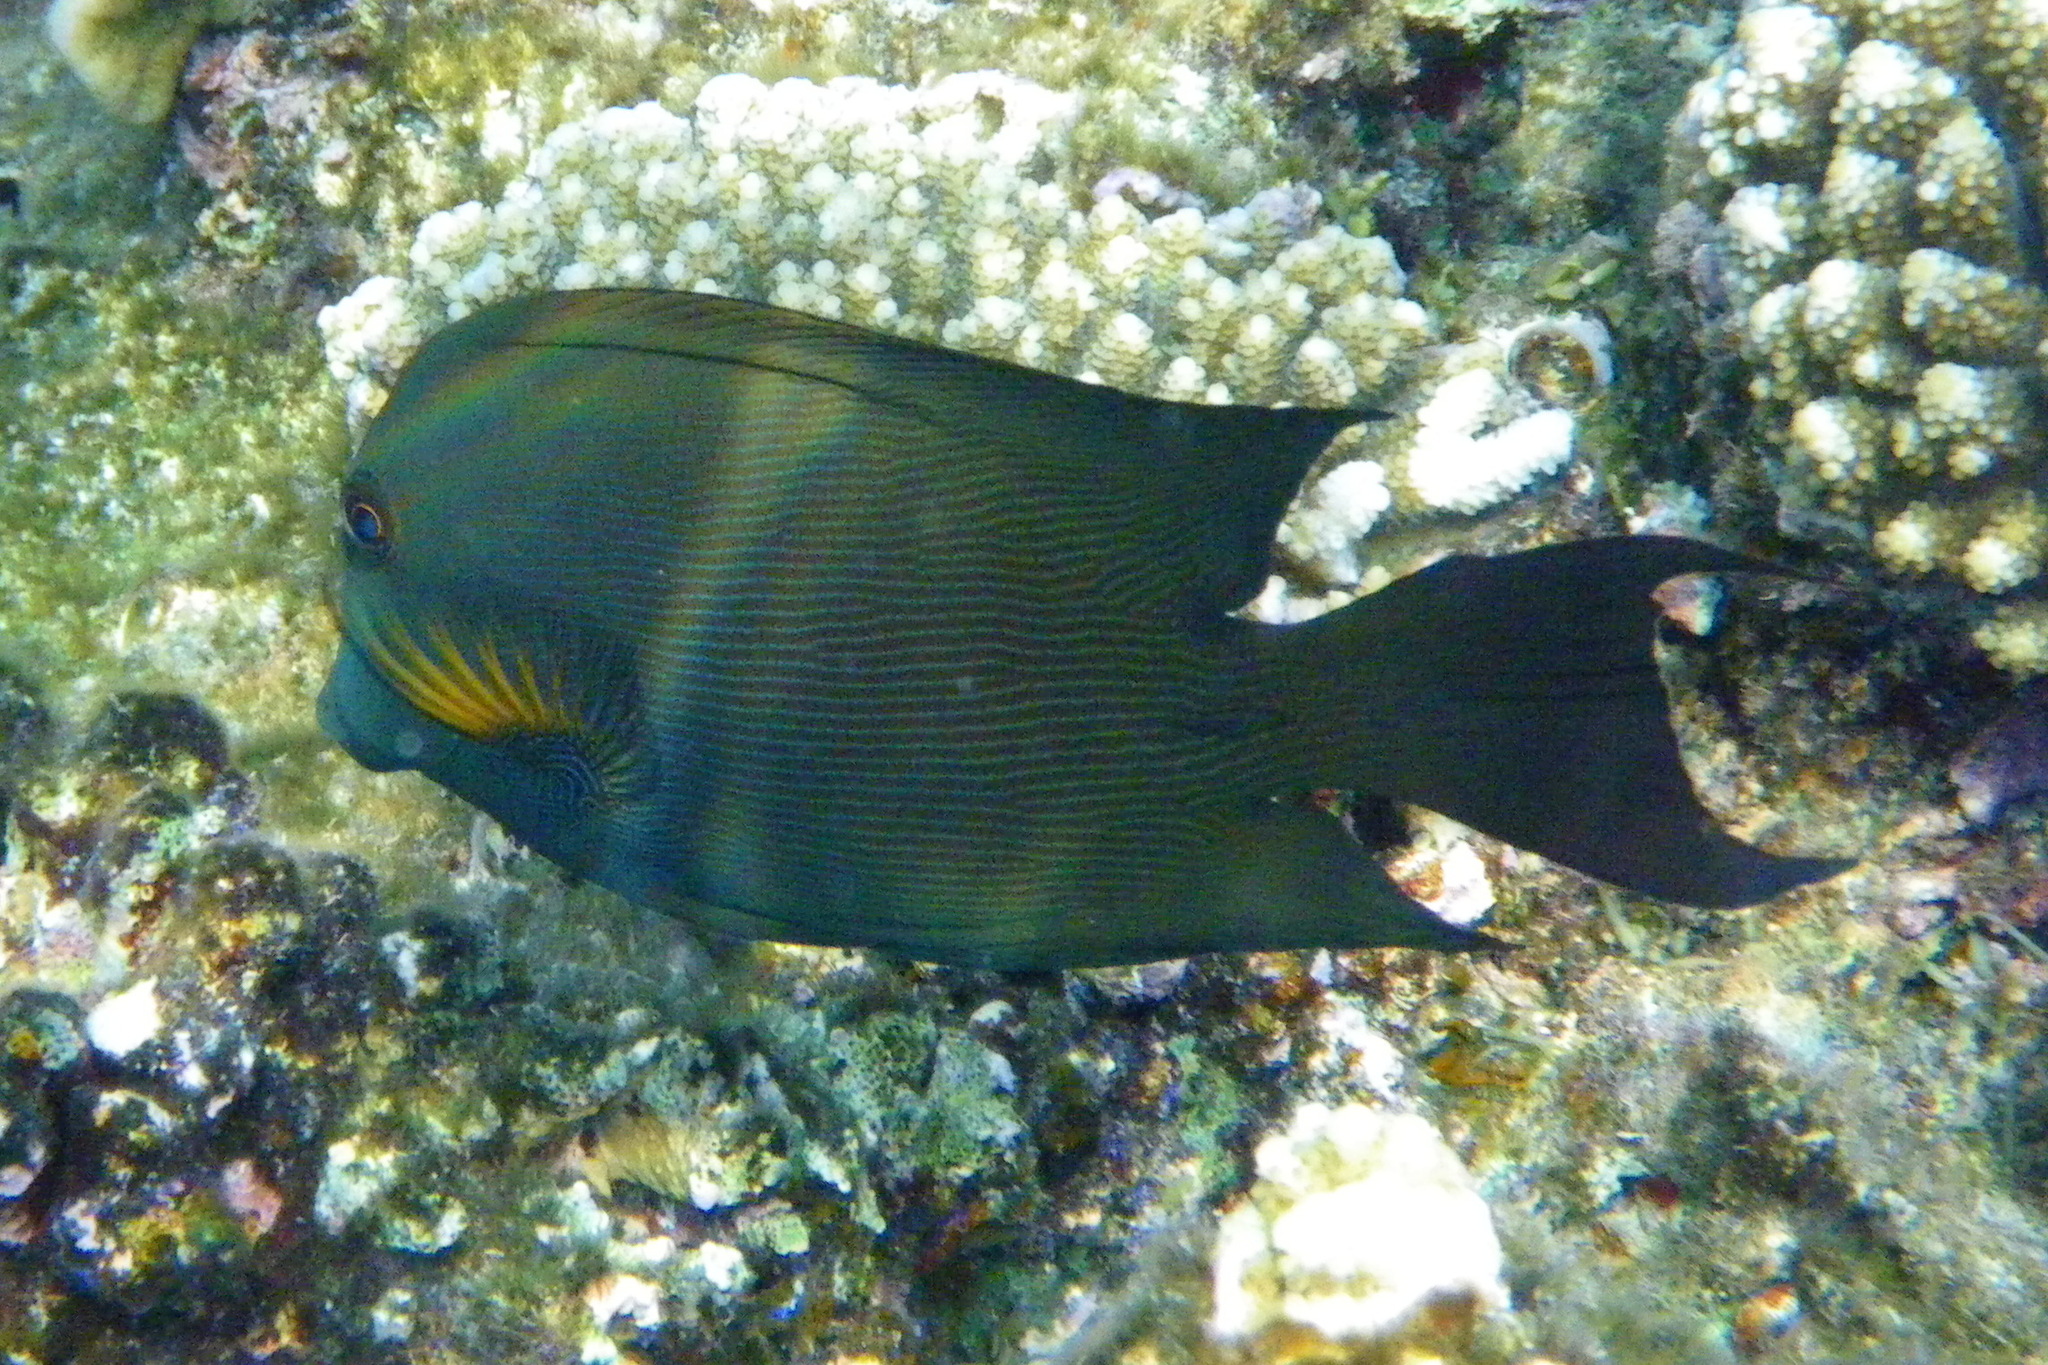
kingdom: Animalia
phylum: Chordata
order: Perciformes
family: Acanthuridae
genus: Ctenochaetus
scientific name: Ctenochaetus striatus
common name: Bristle-toothed surgeonfish
